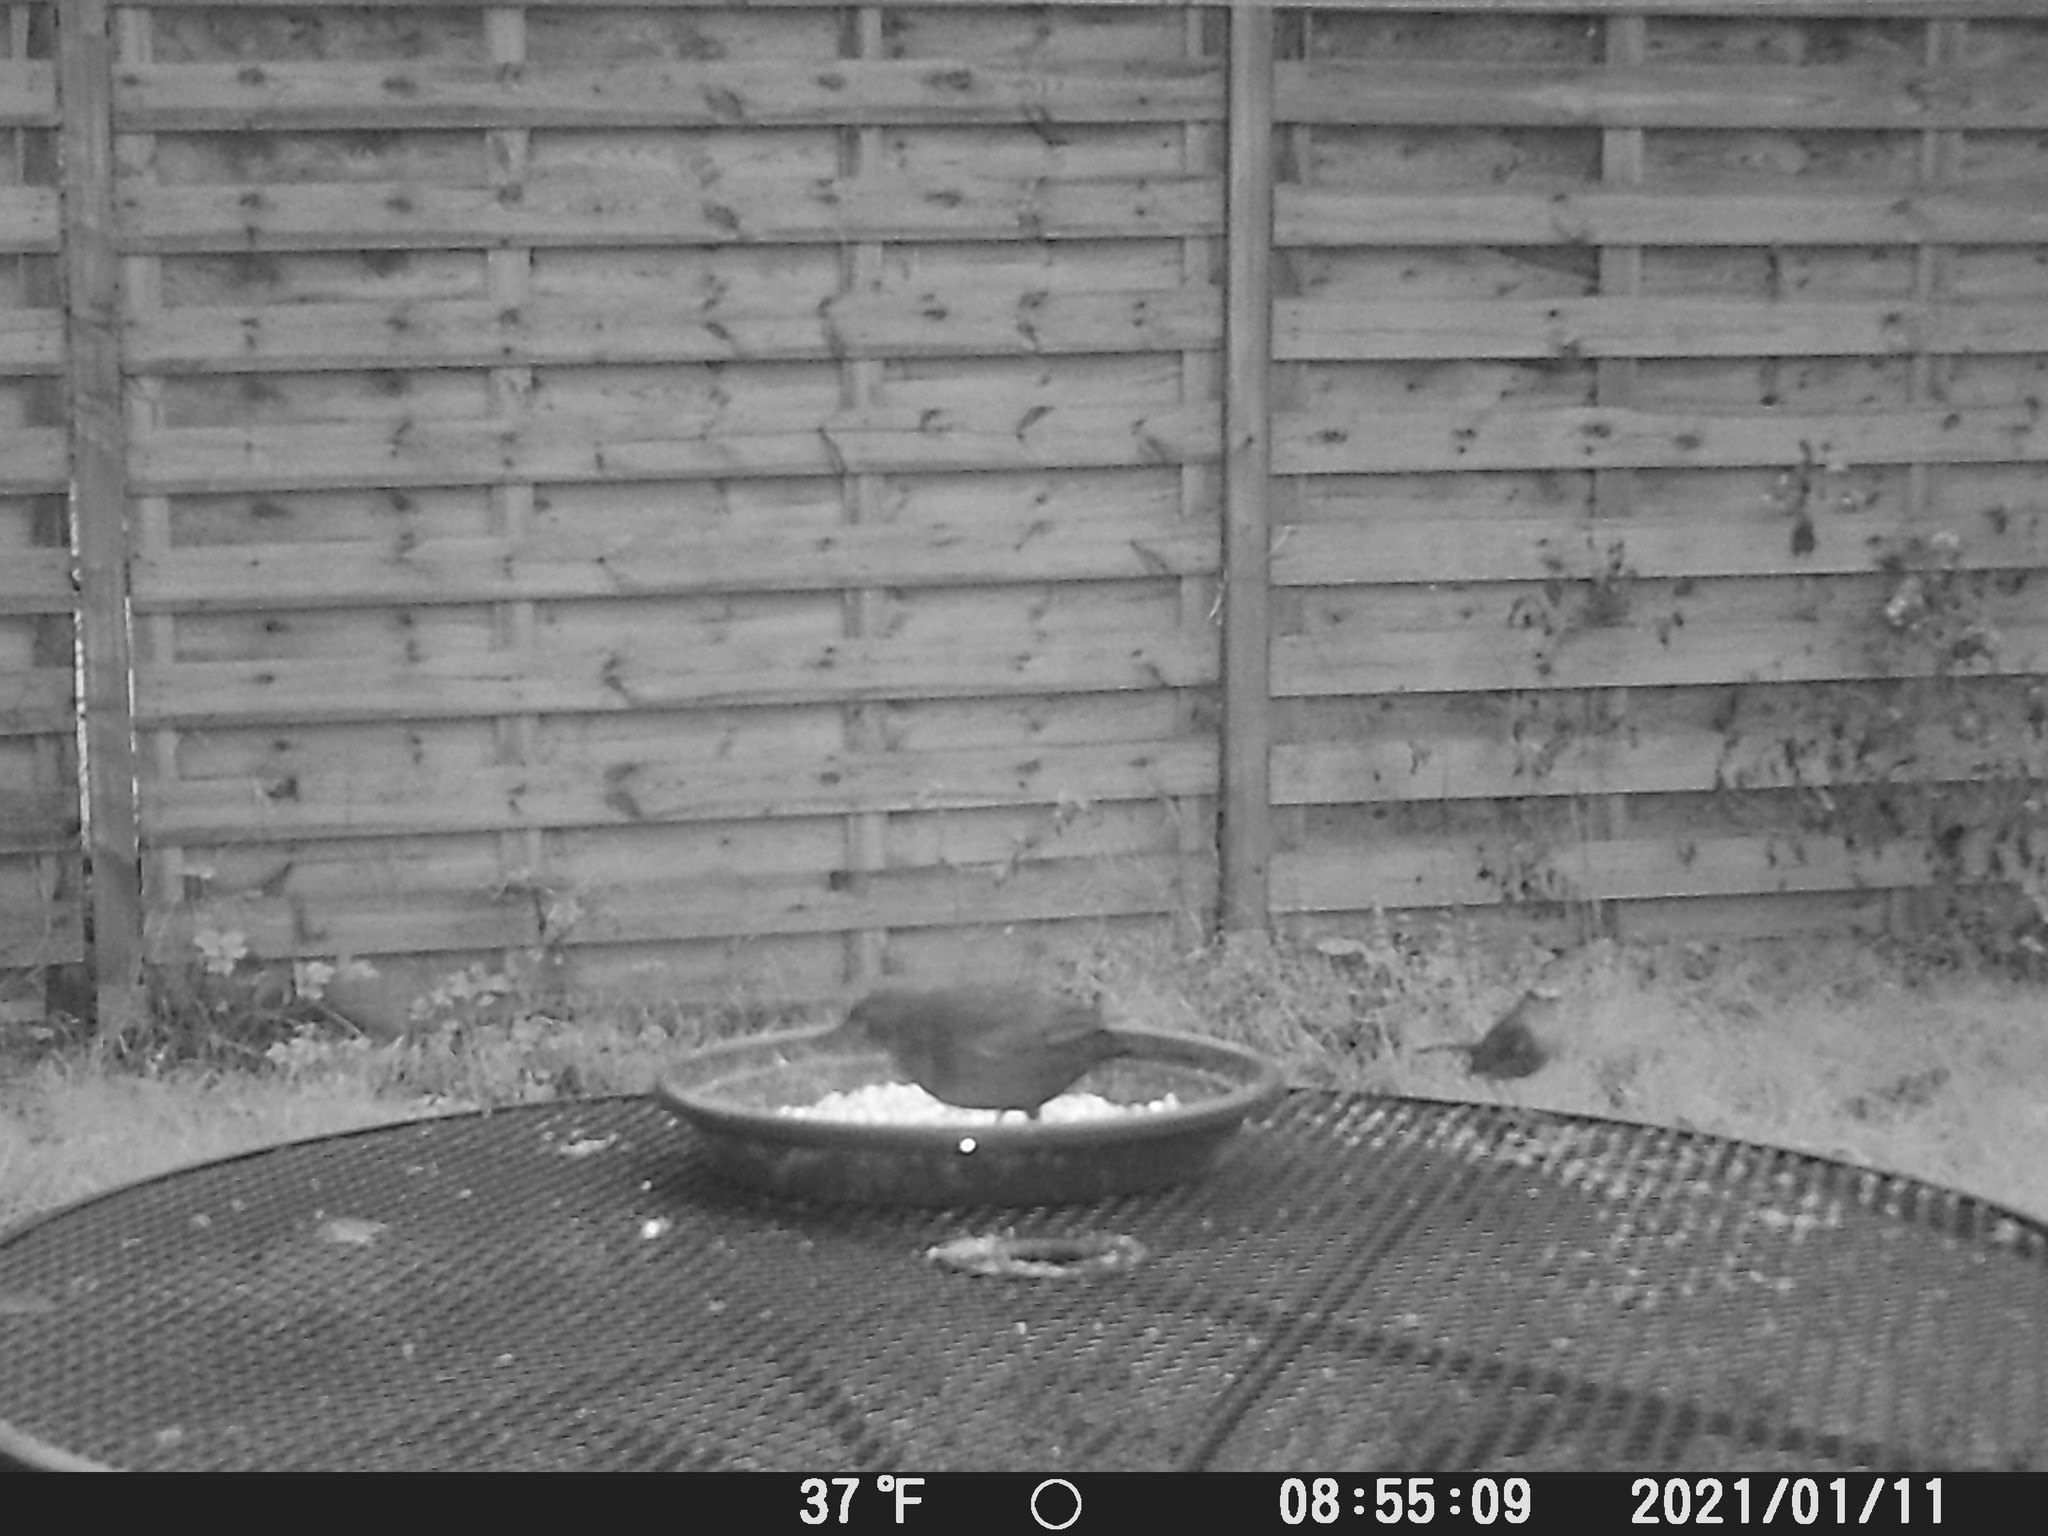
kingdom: Animalia
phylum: Chordata
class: Aves
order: Passeriformes
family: Muscicapidae
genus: Erithacus
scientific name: Erithacus rubecula
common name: European robin
